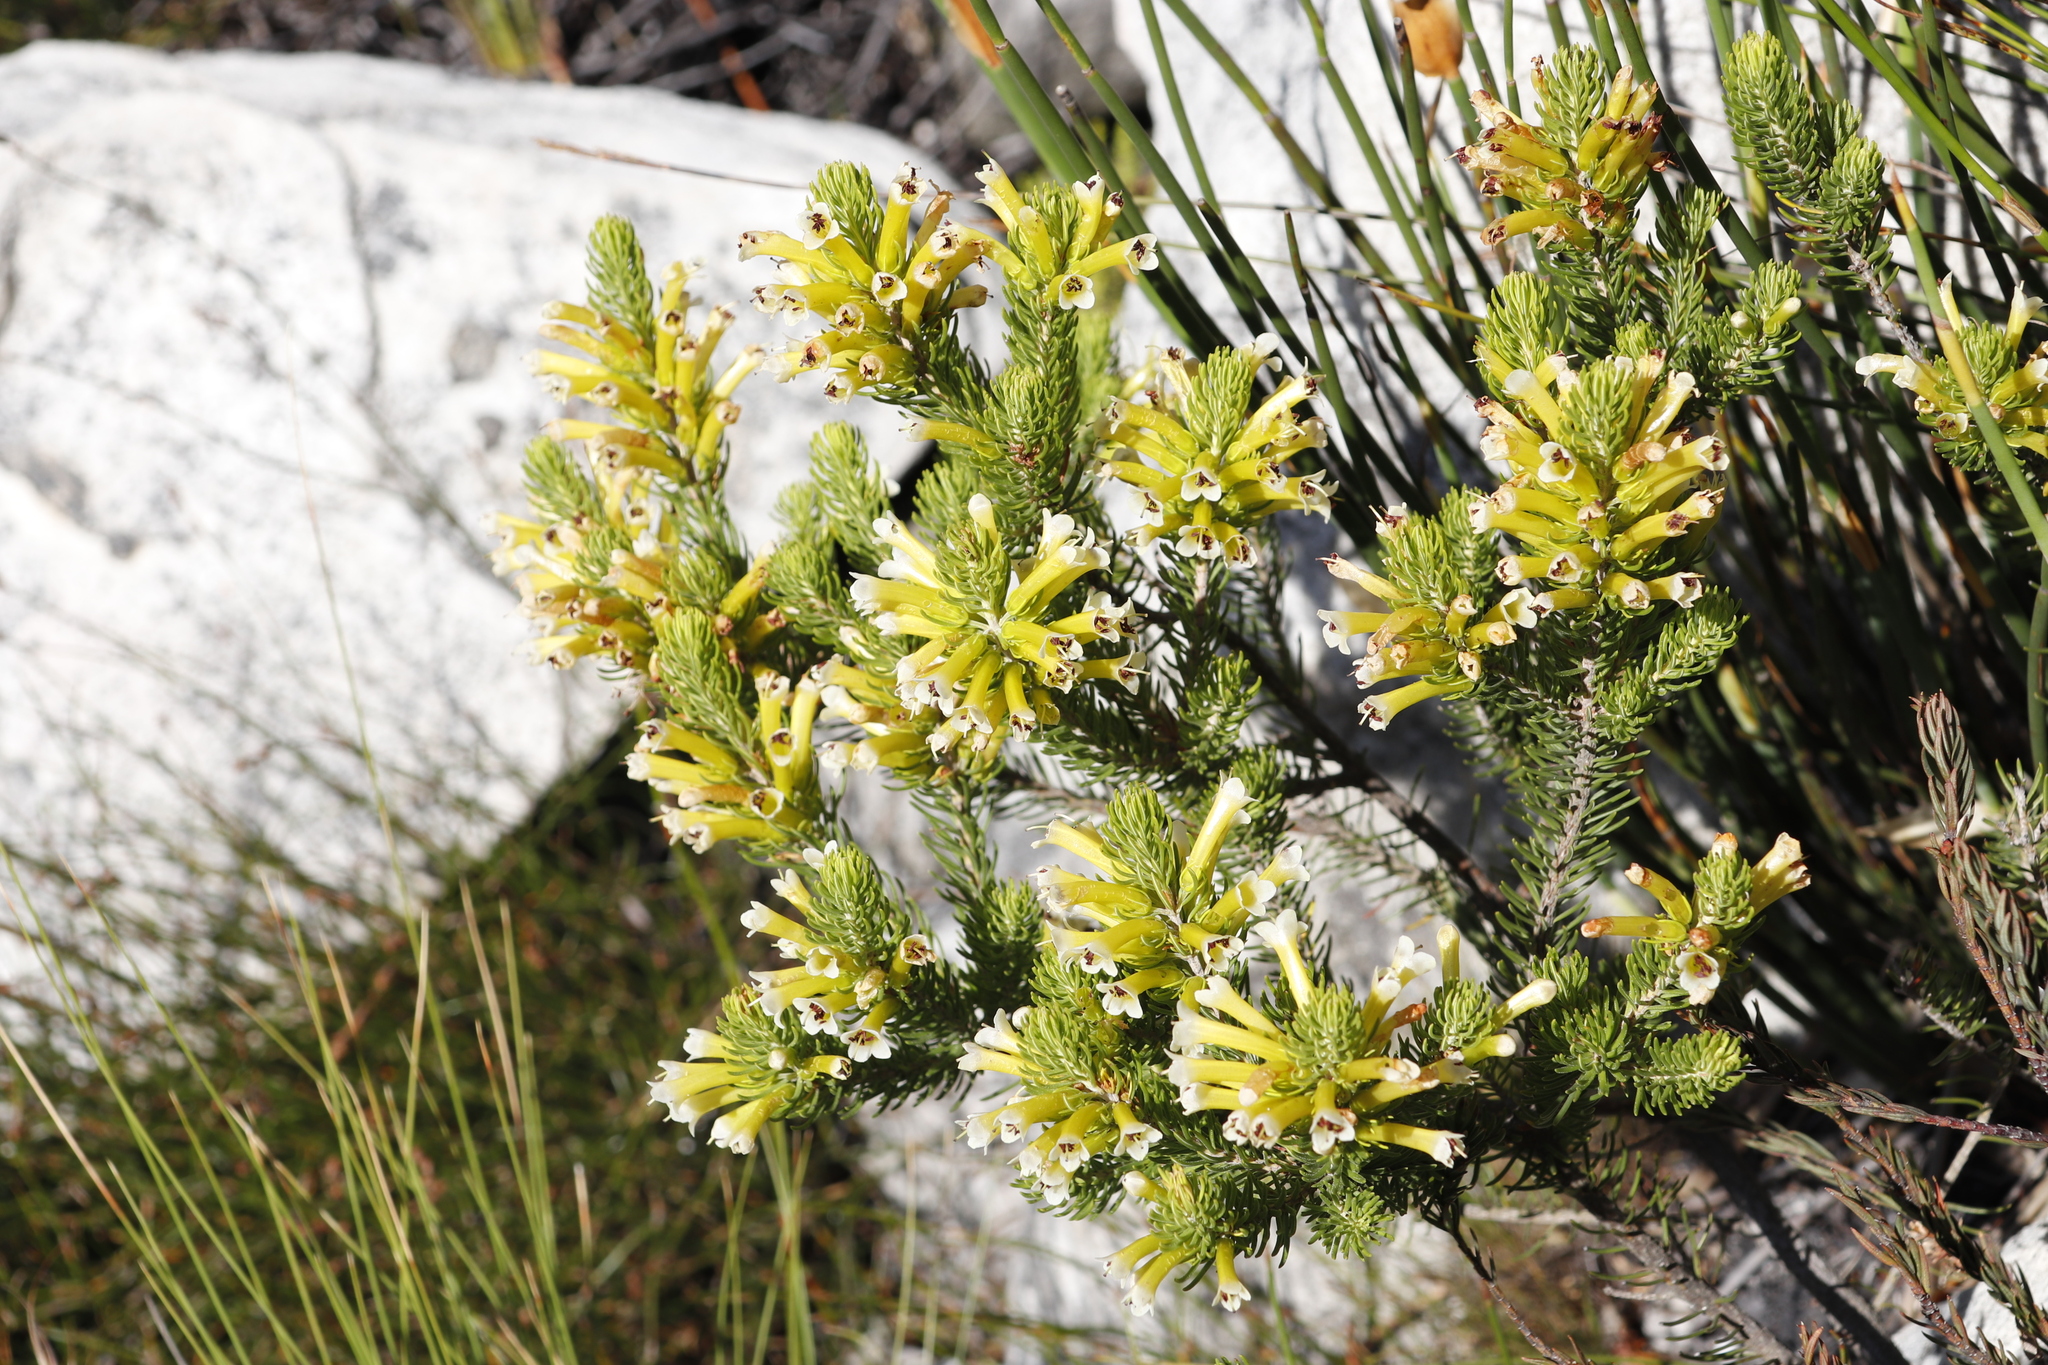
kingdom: Plantae
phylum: Tracheophyta
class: Magnoliopsida
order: Ericales
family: Ericaceae
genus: Erica
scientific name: Erica pinea
